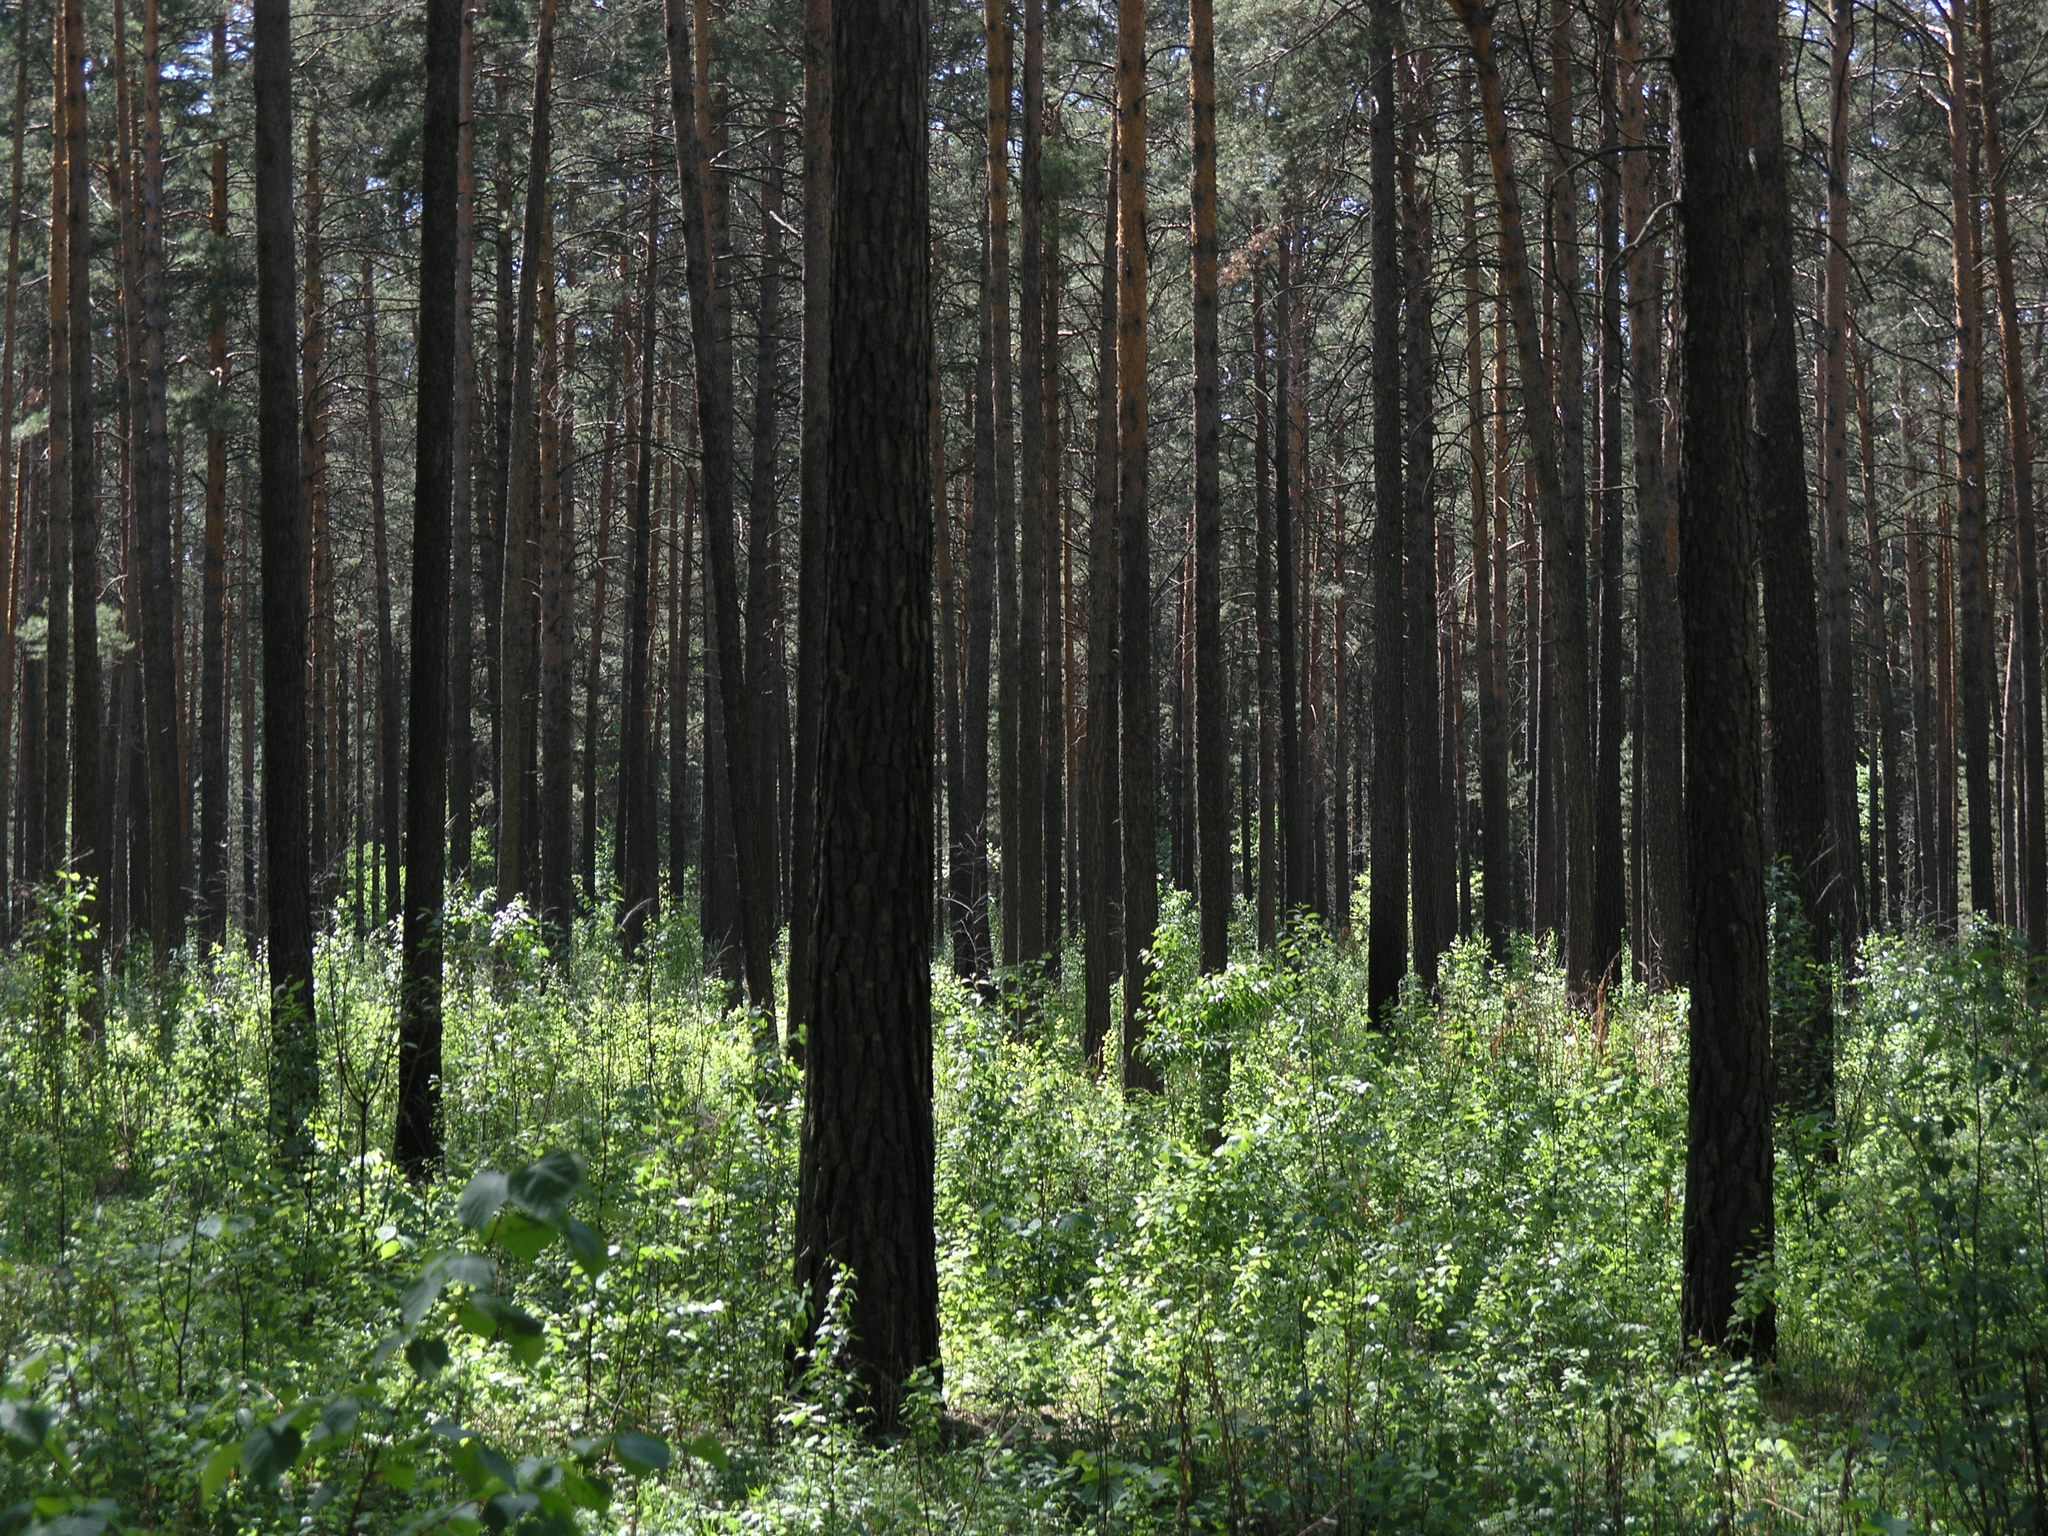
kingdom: Plantae
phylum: Tracheophyta
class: Pinopsida
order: Pinales
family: Pinaceae
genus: Pinus
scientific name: Pinus sylvestris
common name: Scots pine
